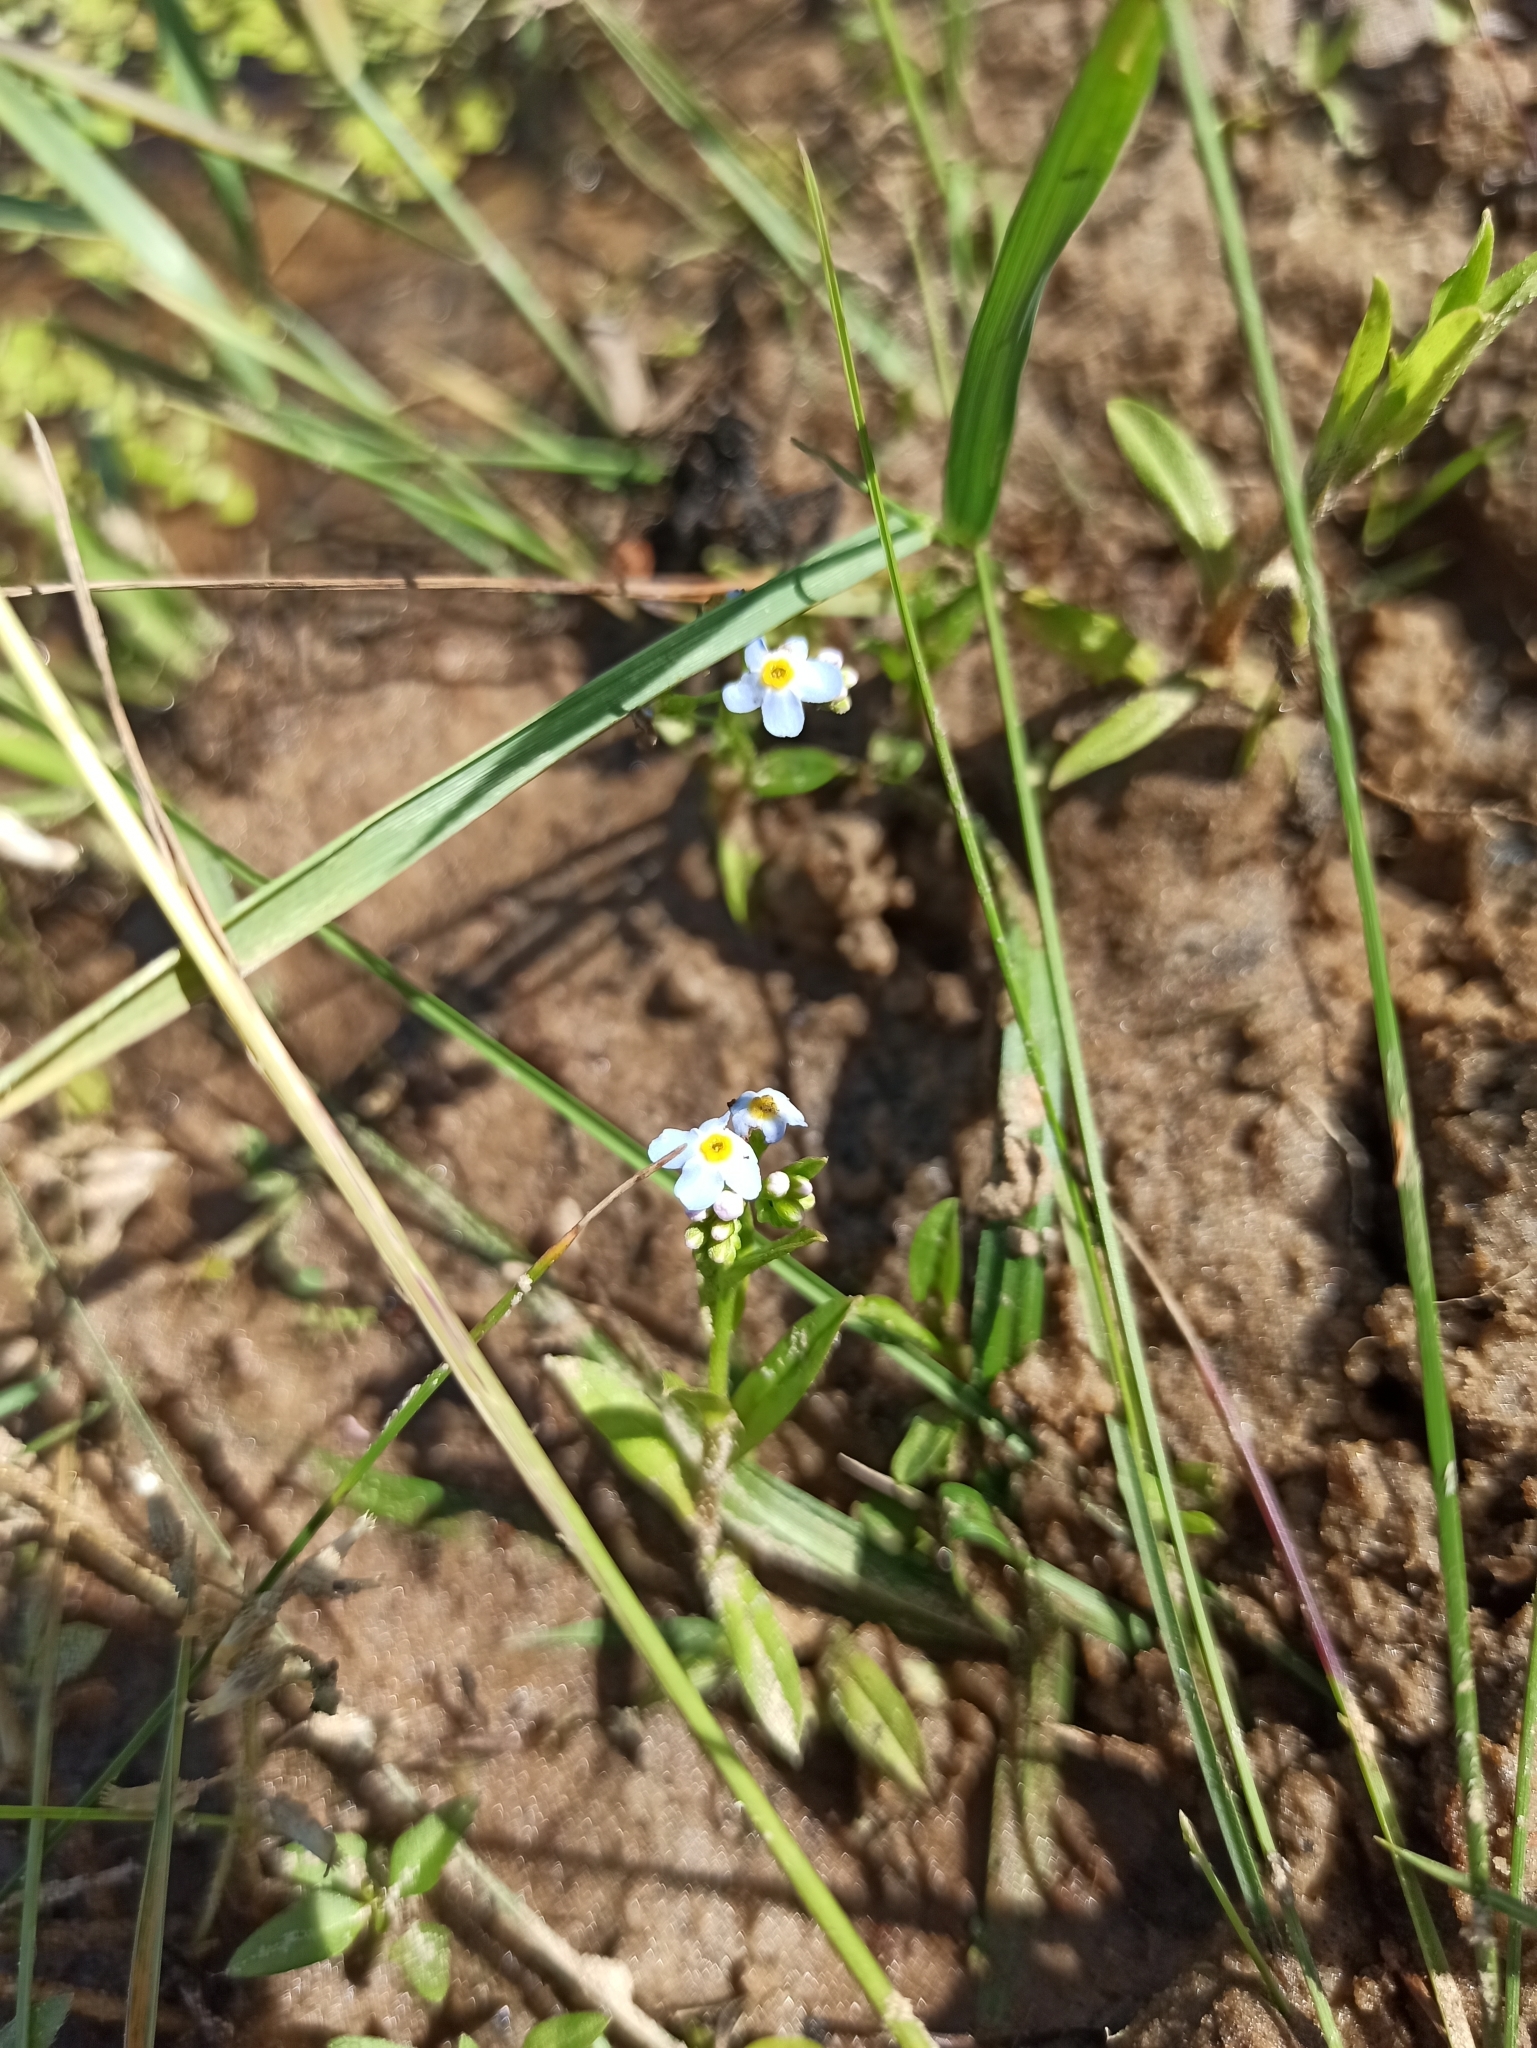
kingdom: Plantae
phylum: Tracheophyta
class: Magnoliopsida
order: Boraginales
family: Boraginaceae
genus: Myosotis
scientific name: Myosotis scorpioides
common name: Water forget-me-not
